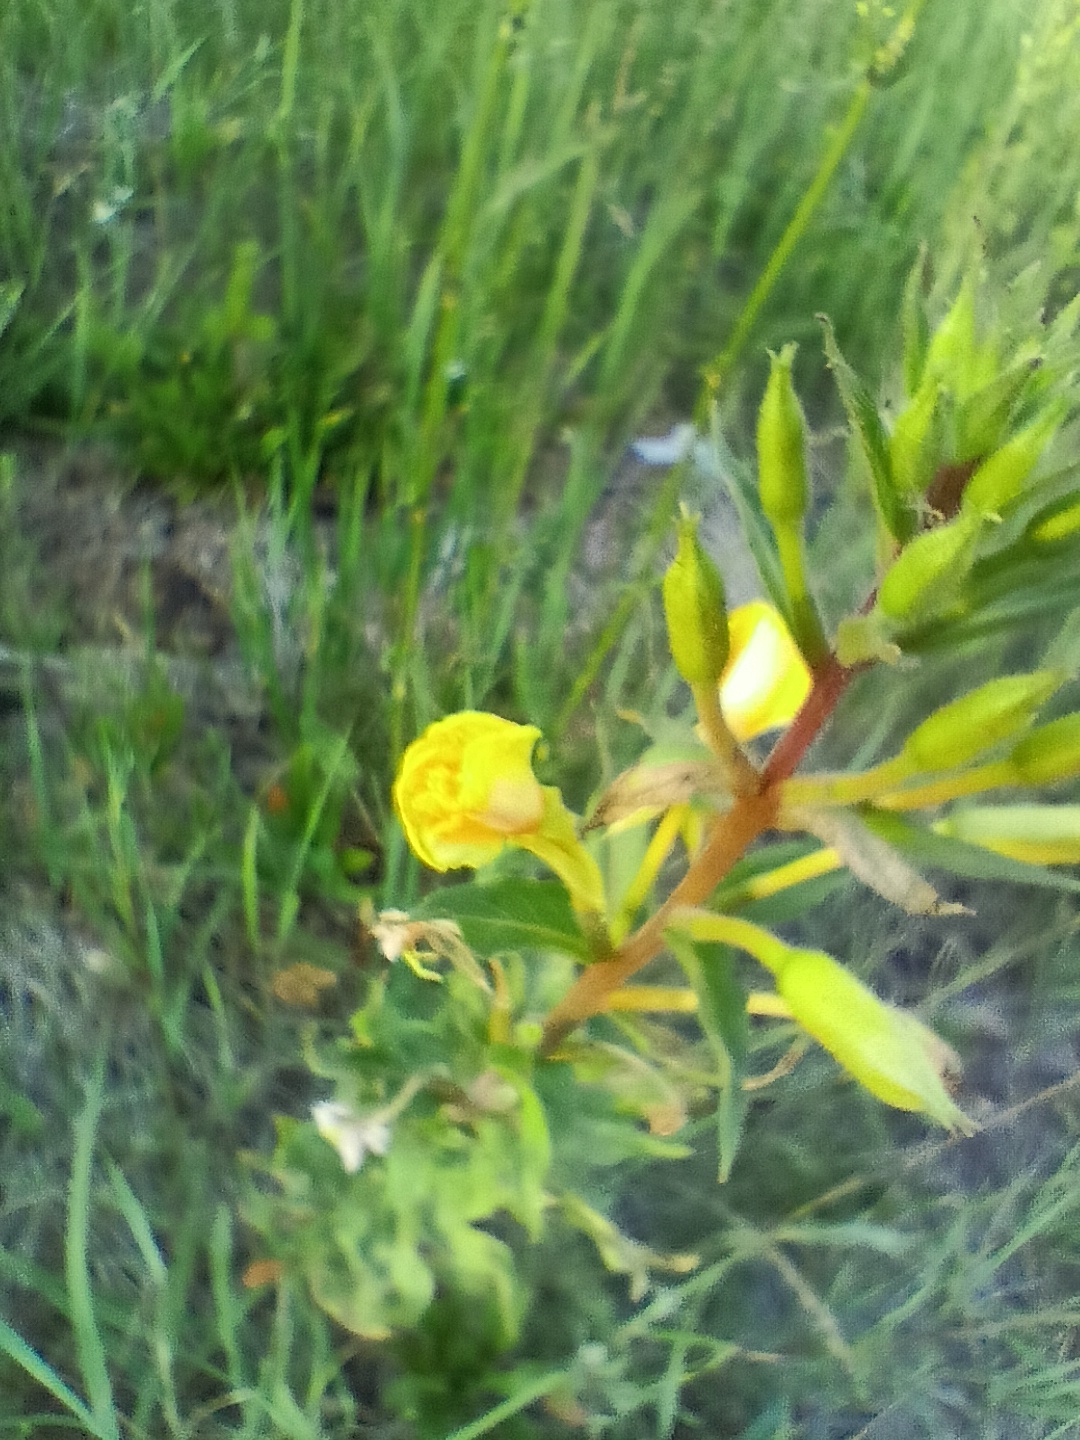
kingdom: Plantae
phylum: Tracheophyta
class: Magnoliopsida
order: Myrtales
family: Onagraceae
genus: Oenothera
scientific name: Oenothera rubricaulis
